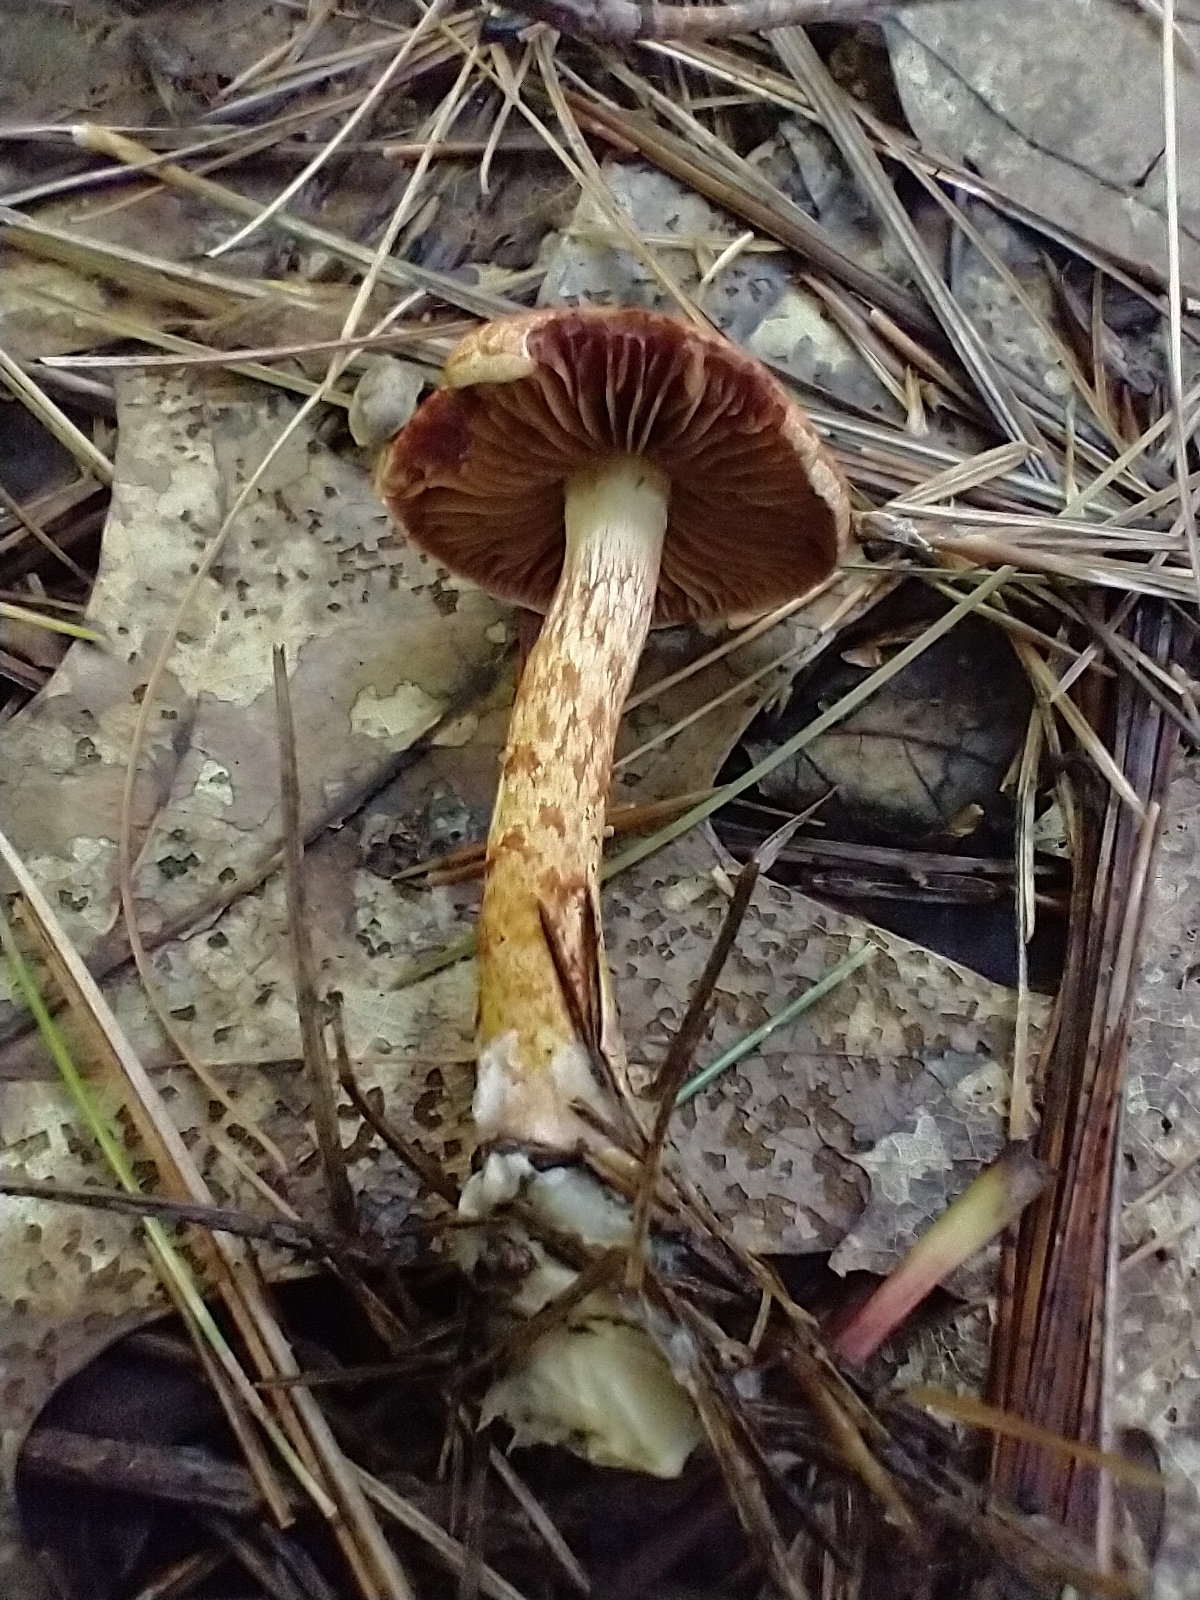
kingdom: Fungi
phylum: Basidiomycota
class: Agaricomycetes
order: Agaricales
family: Cortinariaceae
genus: Cortinarius
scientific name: Cortinarius bolaris
